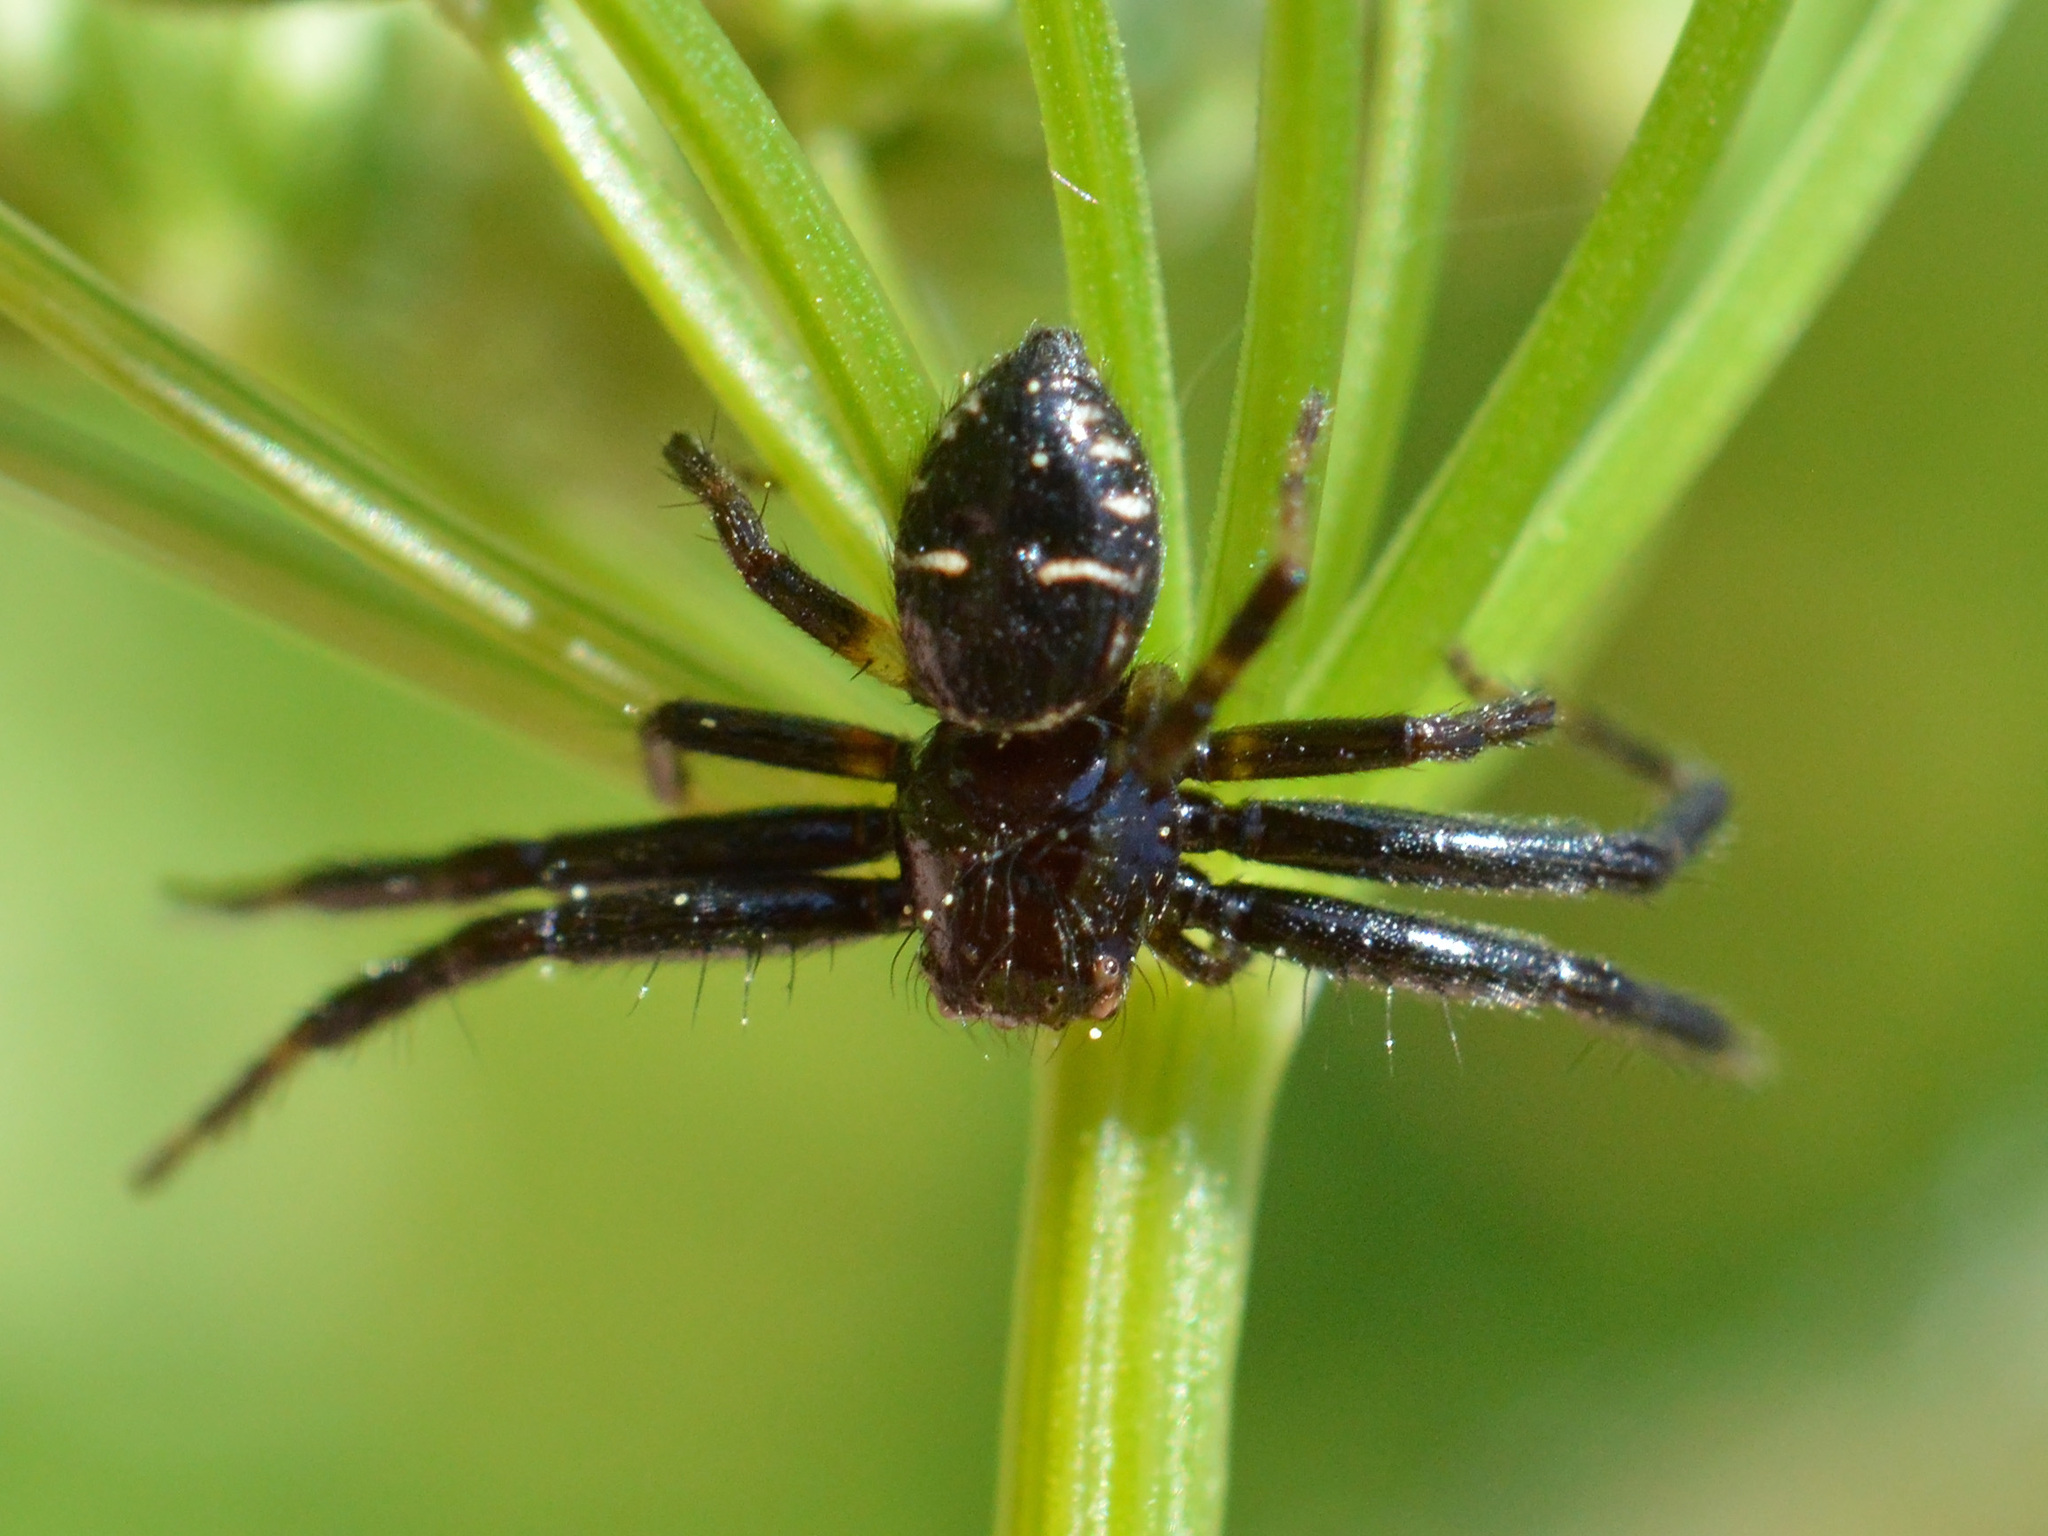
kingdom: Animalia
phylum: Arthropoda
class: Arachnida
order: Araneae
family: Thomisidae
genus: Synema
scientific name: Synema globosum
